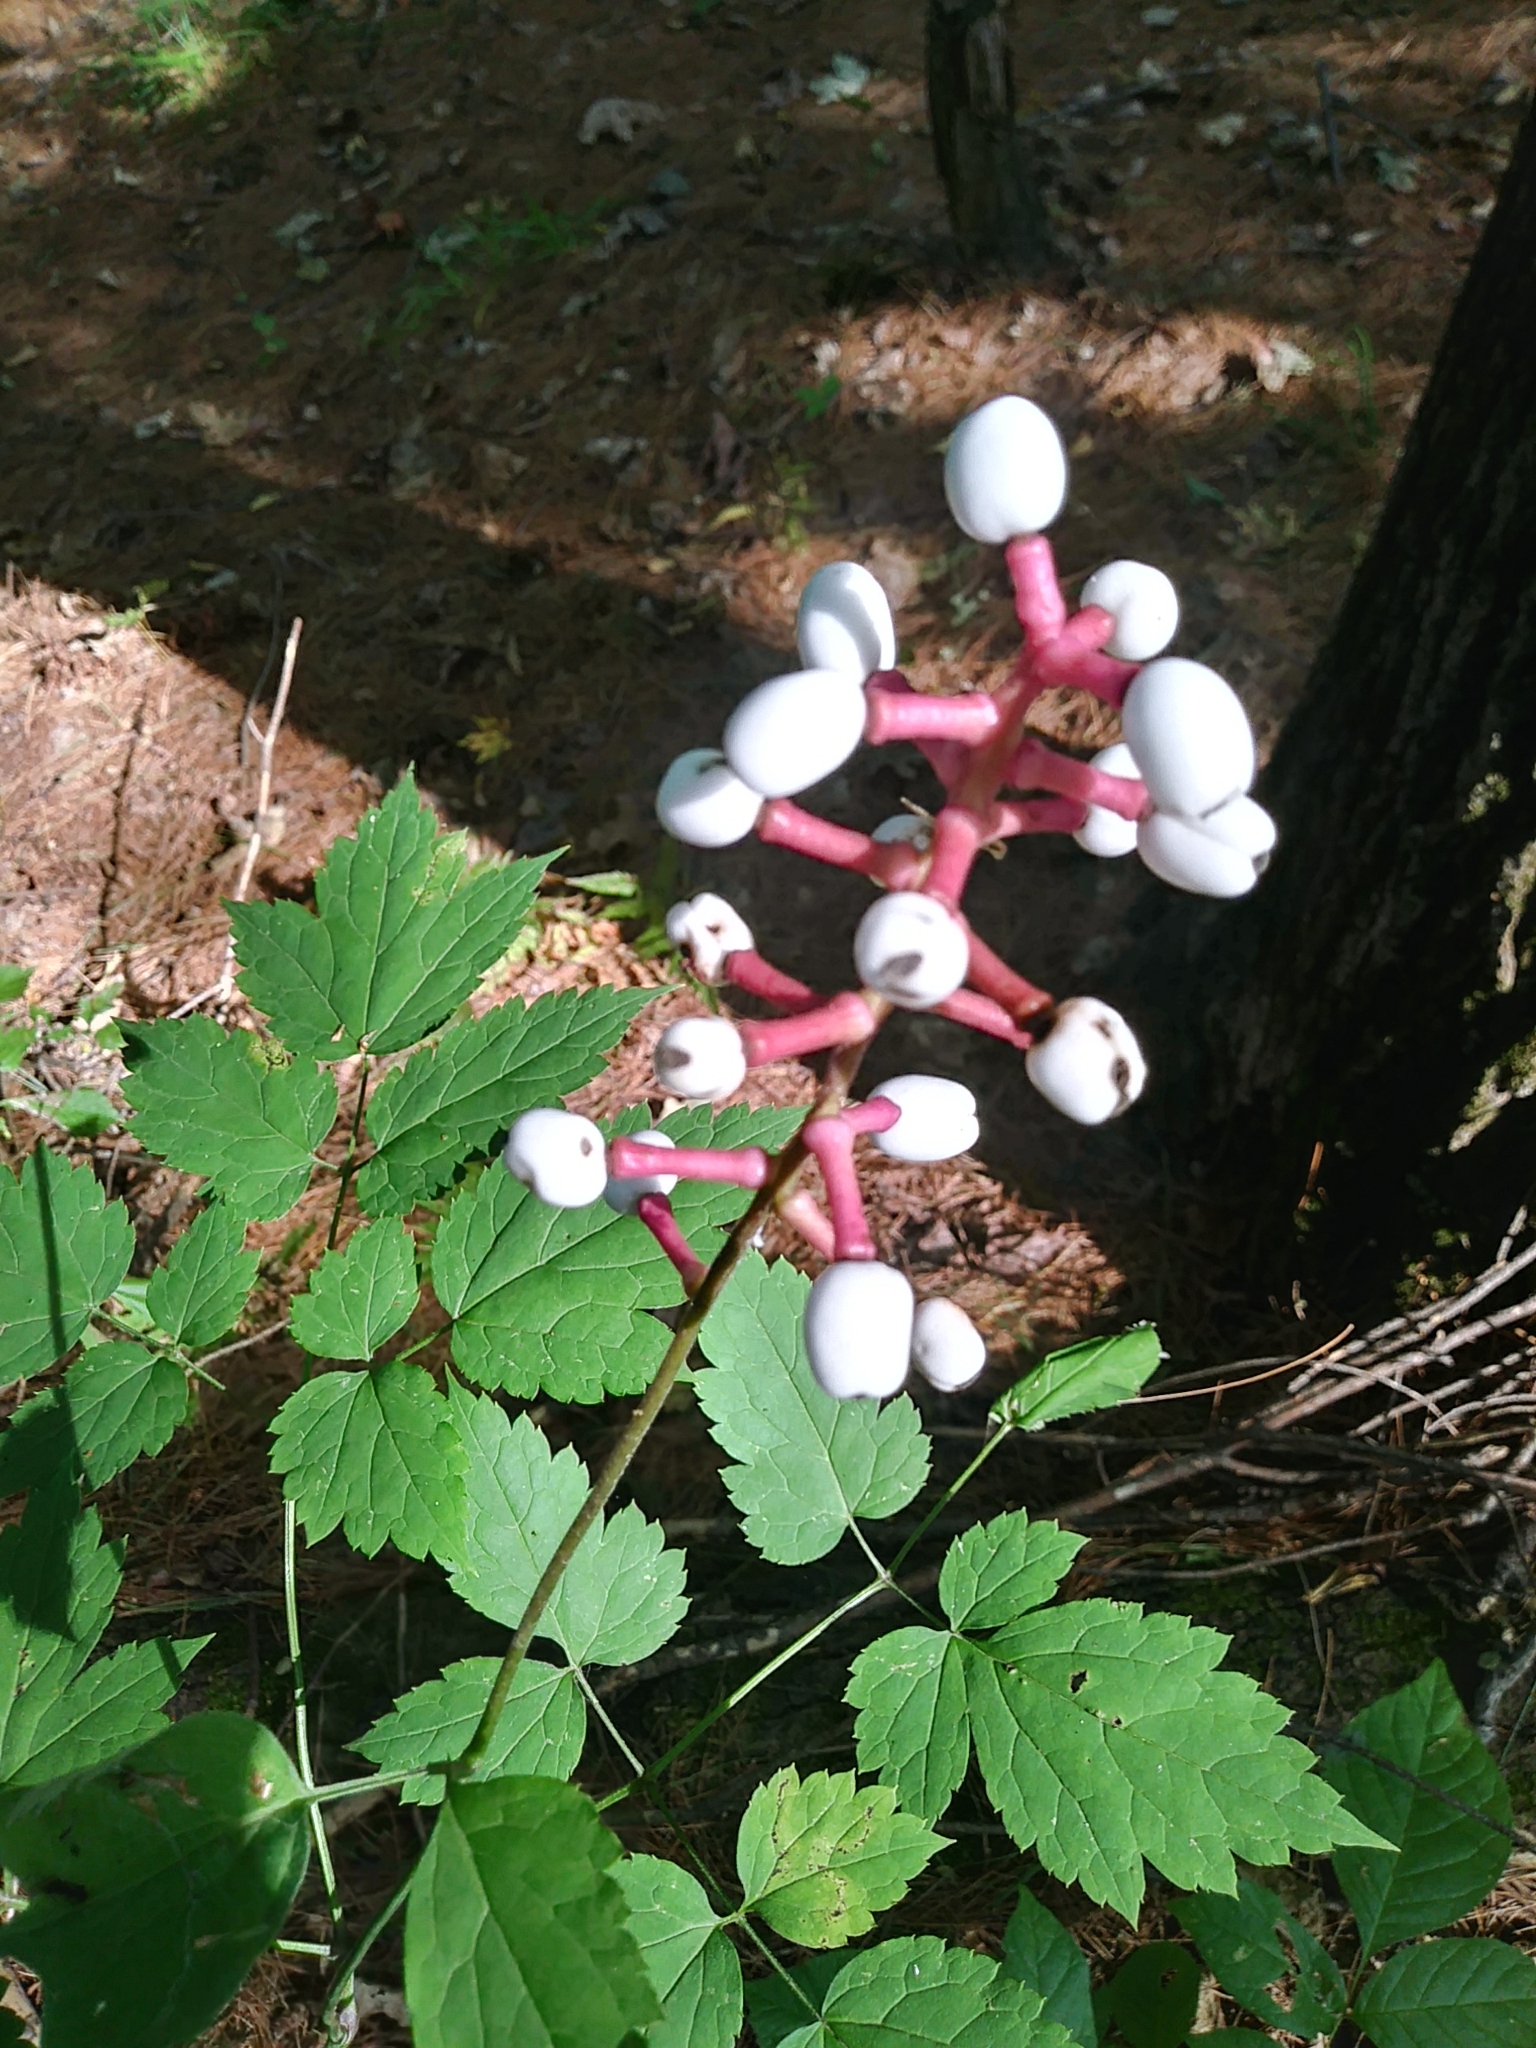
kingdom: Plantae
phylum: Tracheophyta
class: Magnoliopsida
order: Ranunculales
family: Ranunculaceae
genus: Actaea
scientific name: Actaea pachypoda
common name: Doll's-eyes
